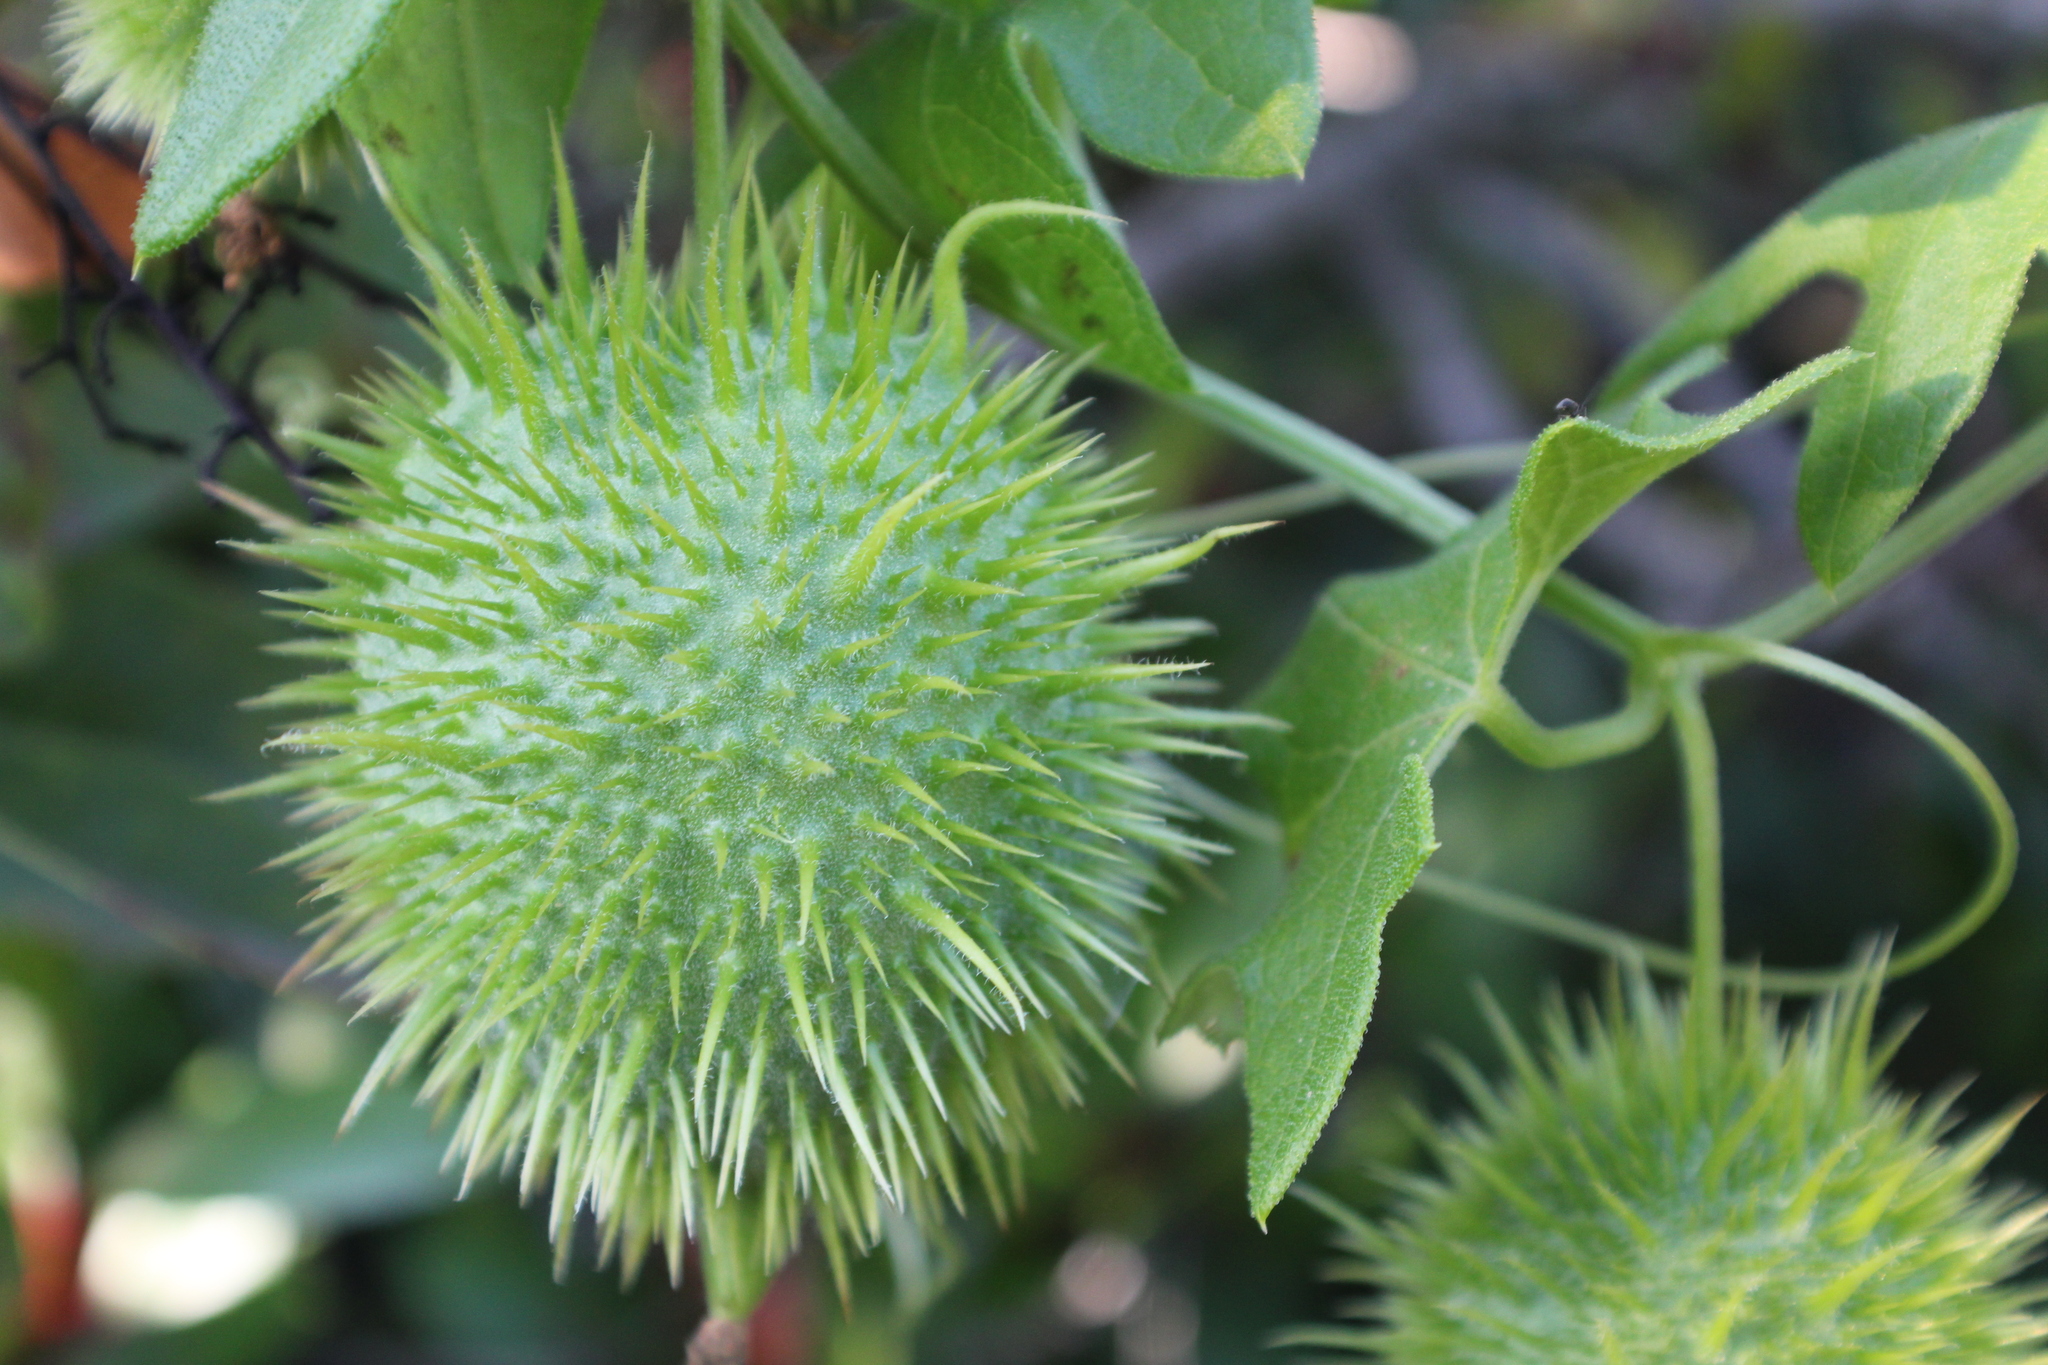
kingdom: Plantae
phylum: Tracheophyta
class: Magnoliopsida
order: Cucurbitales
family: Cucurbitaceae
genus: Marah
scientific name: Marah macrocarpa
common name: Cucamonga manroot
